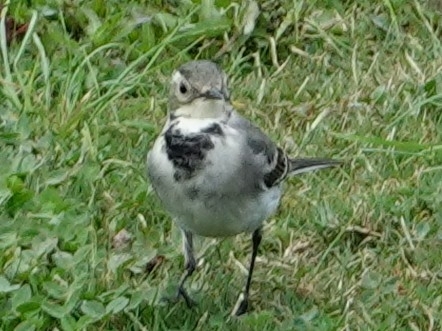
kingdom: Animalia
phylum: Chordata
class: Aves
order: Passeriformes
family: Motacillidae
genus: Motacilla
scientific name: Motacilla alba
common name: White wagtail
